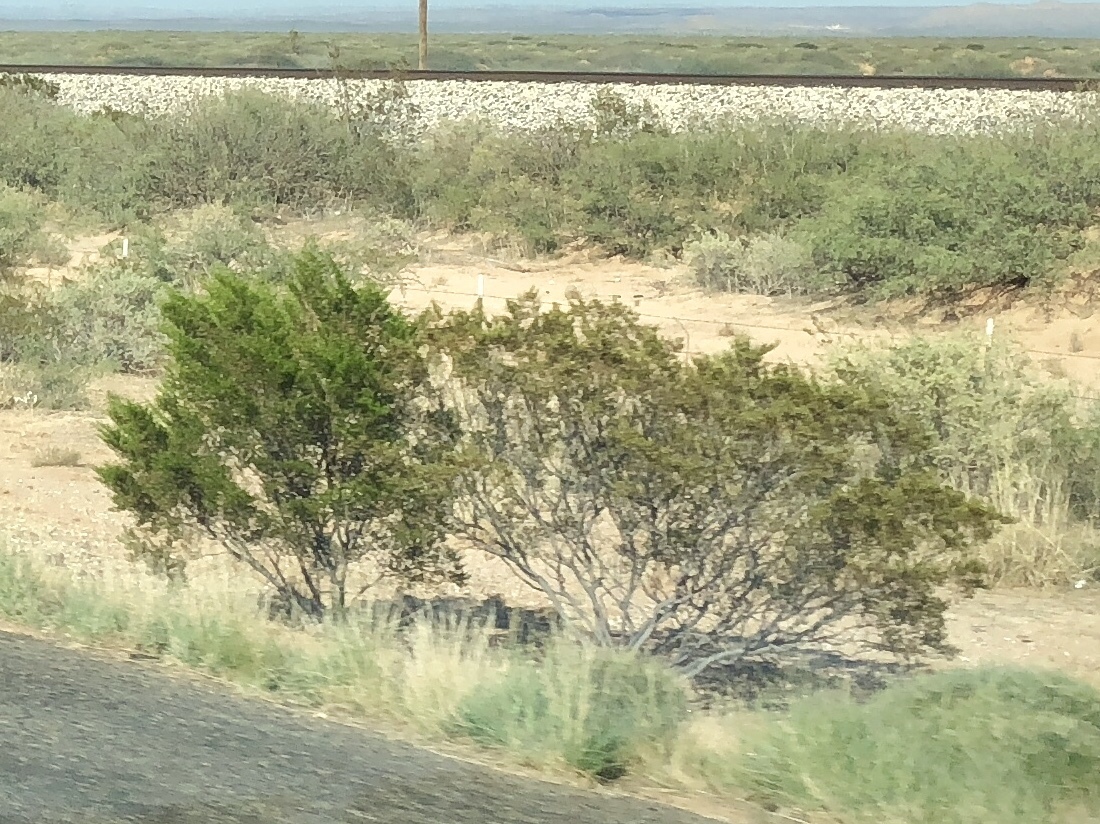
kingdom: Plantae
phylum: Tracheophyta
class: Magnoliopsida
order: Zygophyllales
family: Zygophyllaceae
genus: Larrea
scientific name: Larrea tridentata
